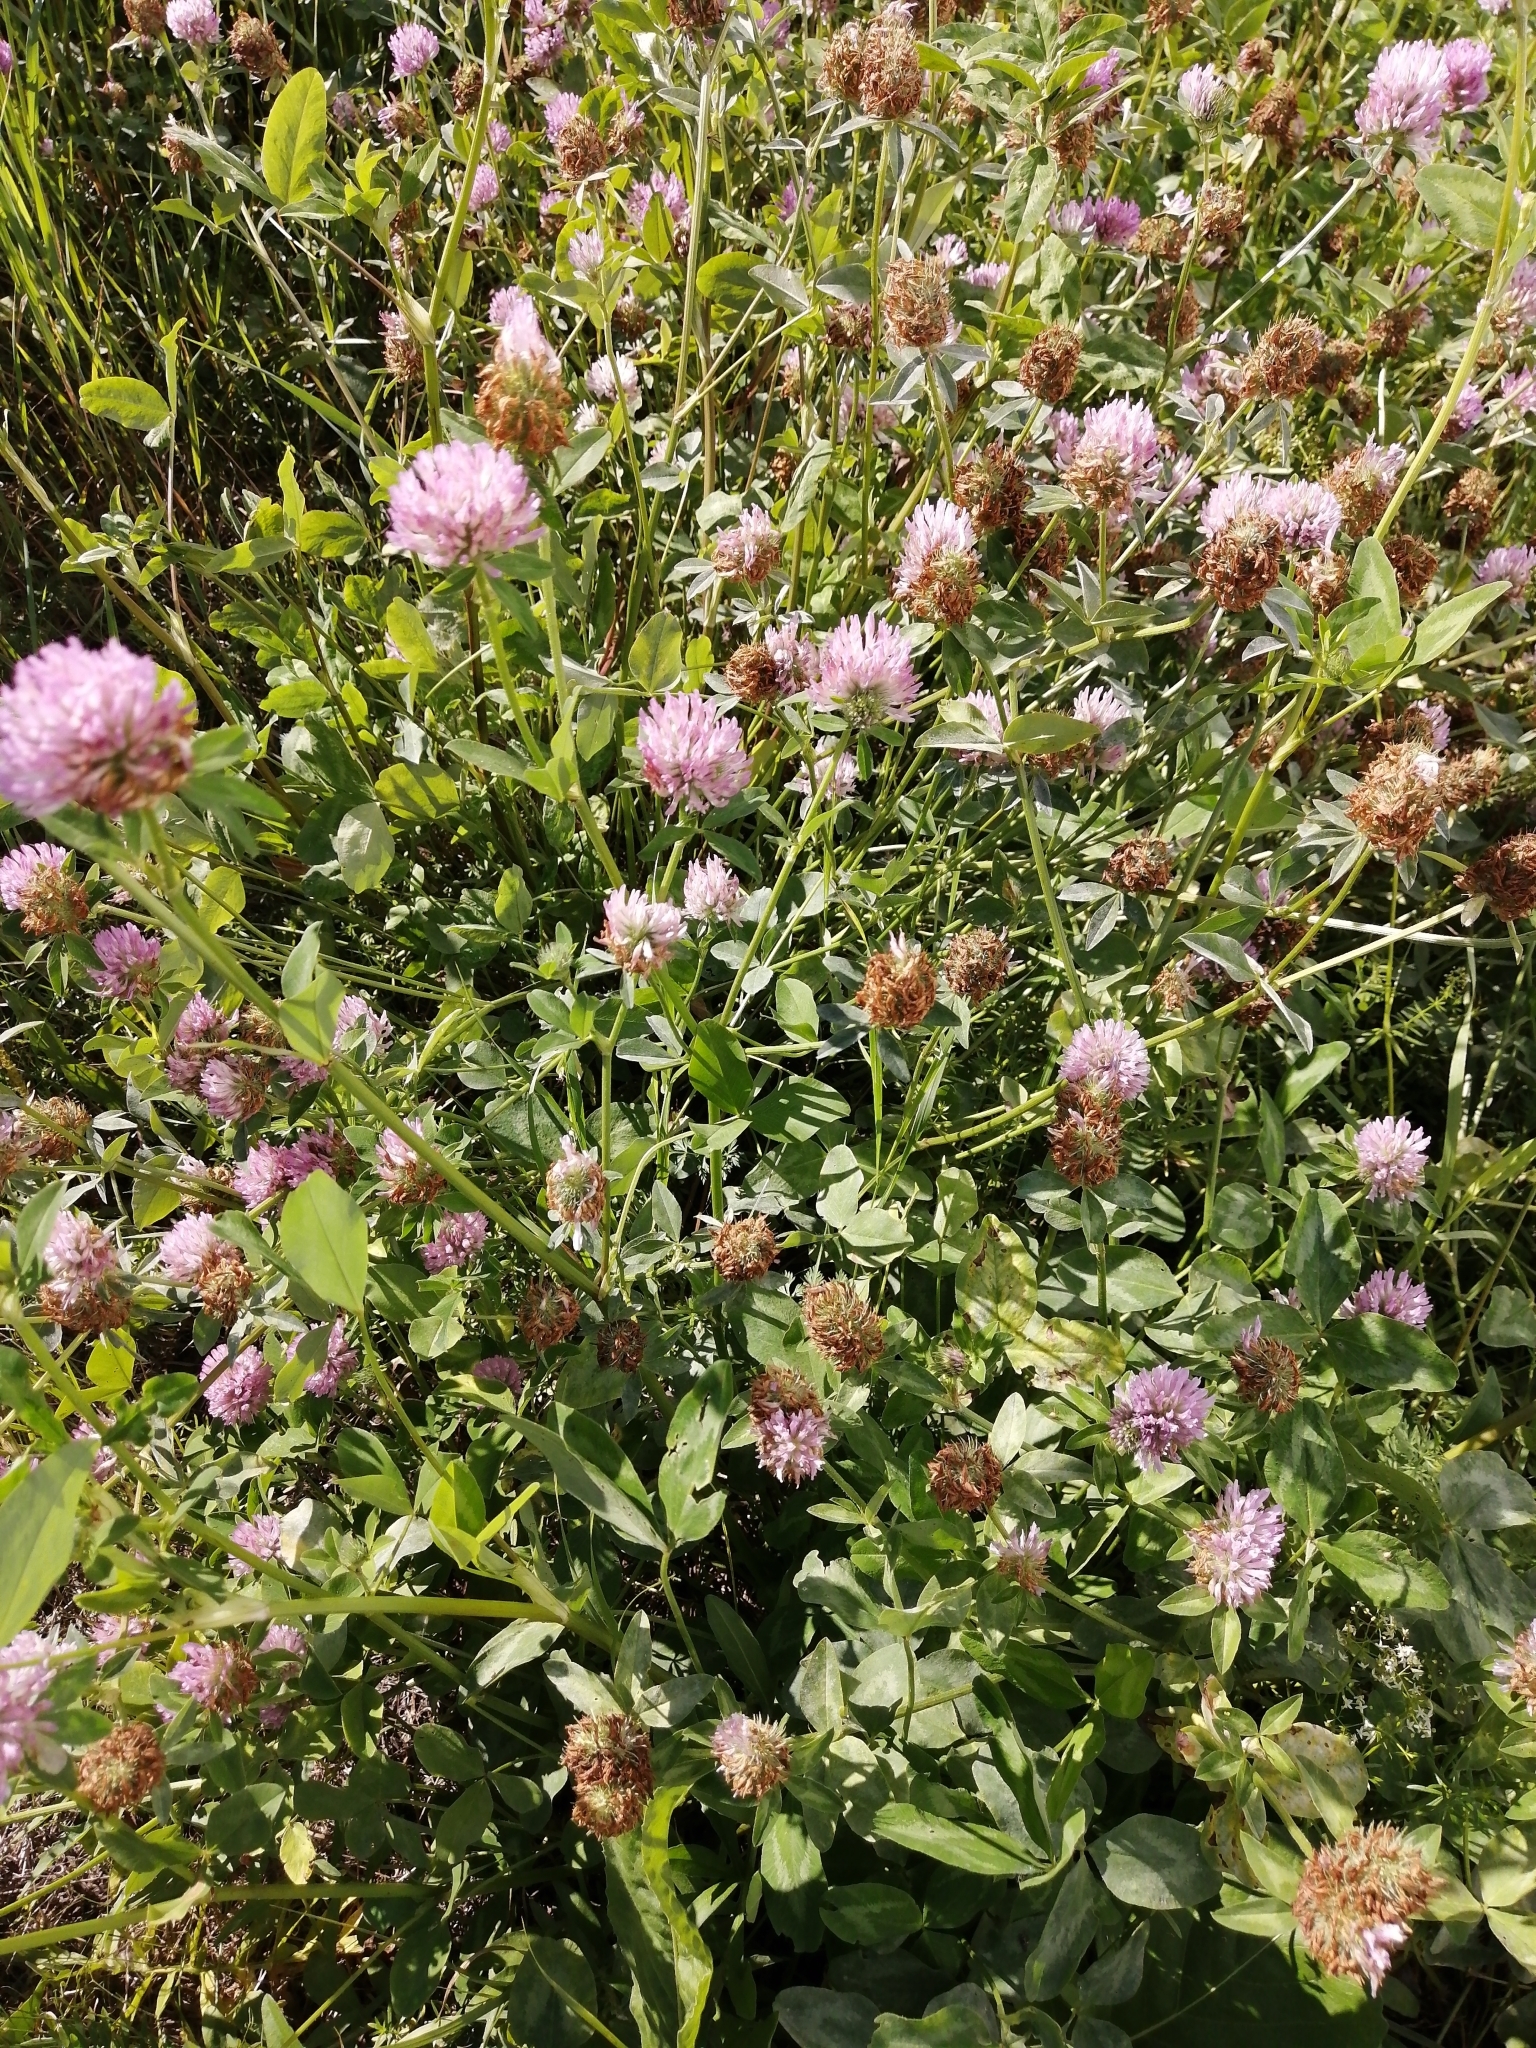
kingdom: Plantae
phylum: Tracheophyta
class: Magnoliopsida
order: Fabales
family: Fabaceae
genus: Trifolium
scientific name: Trifolium pratense
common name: Red clover
